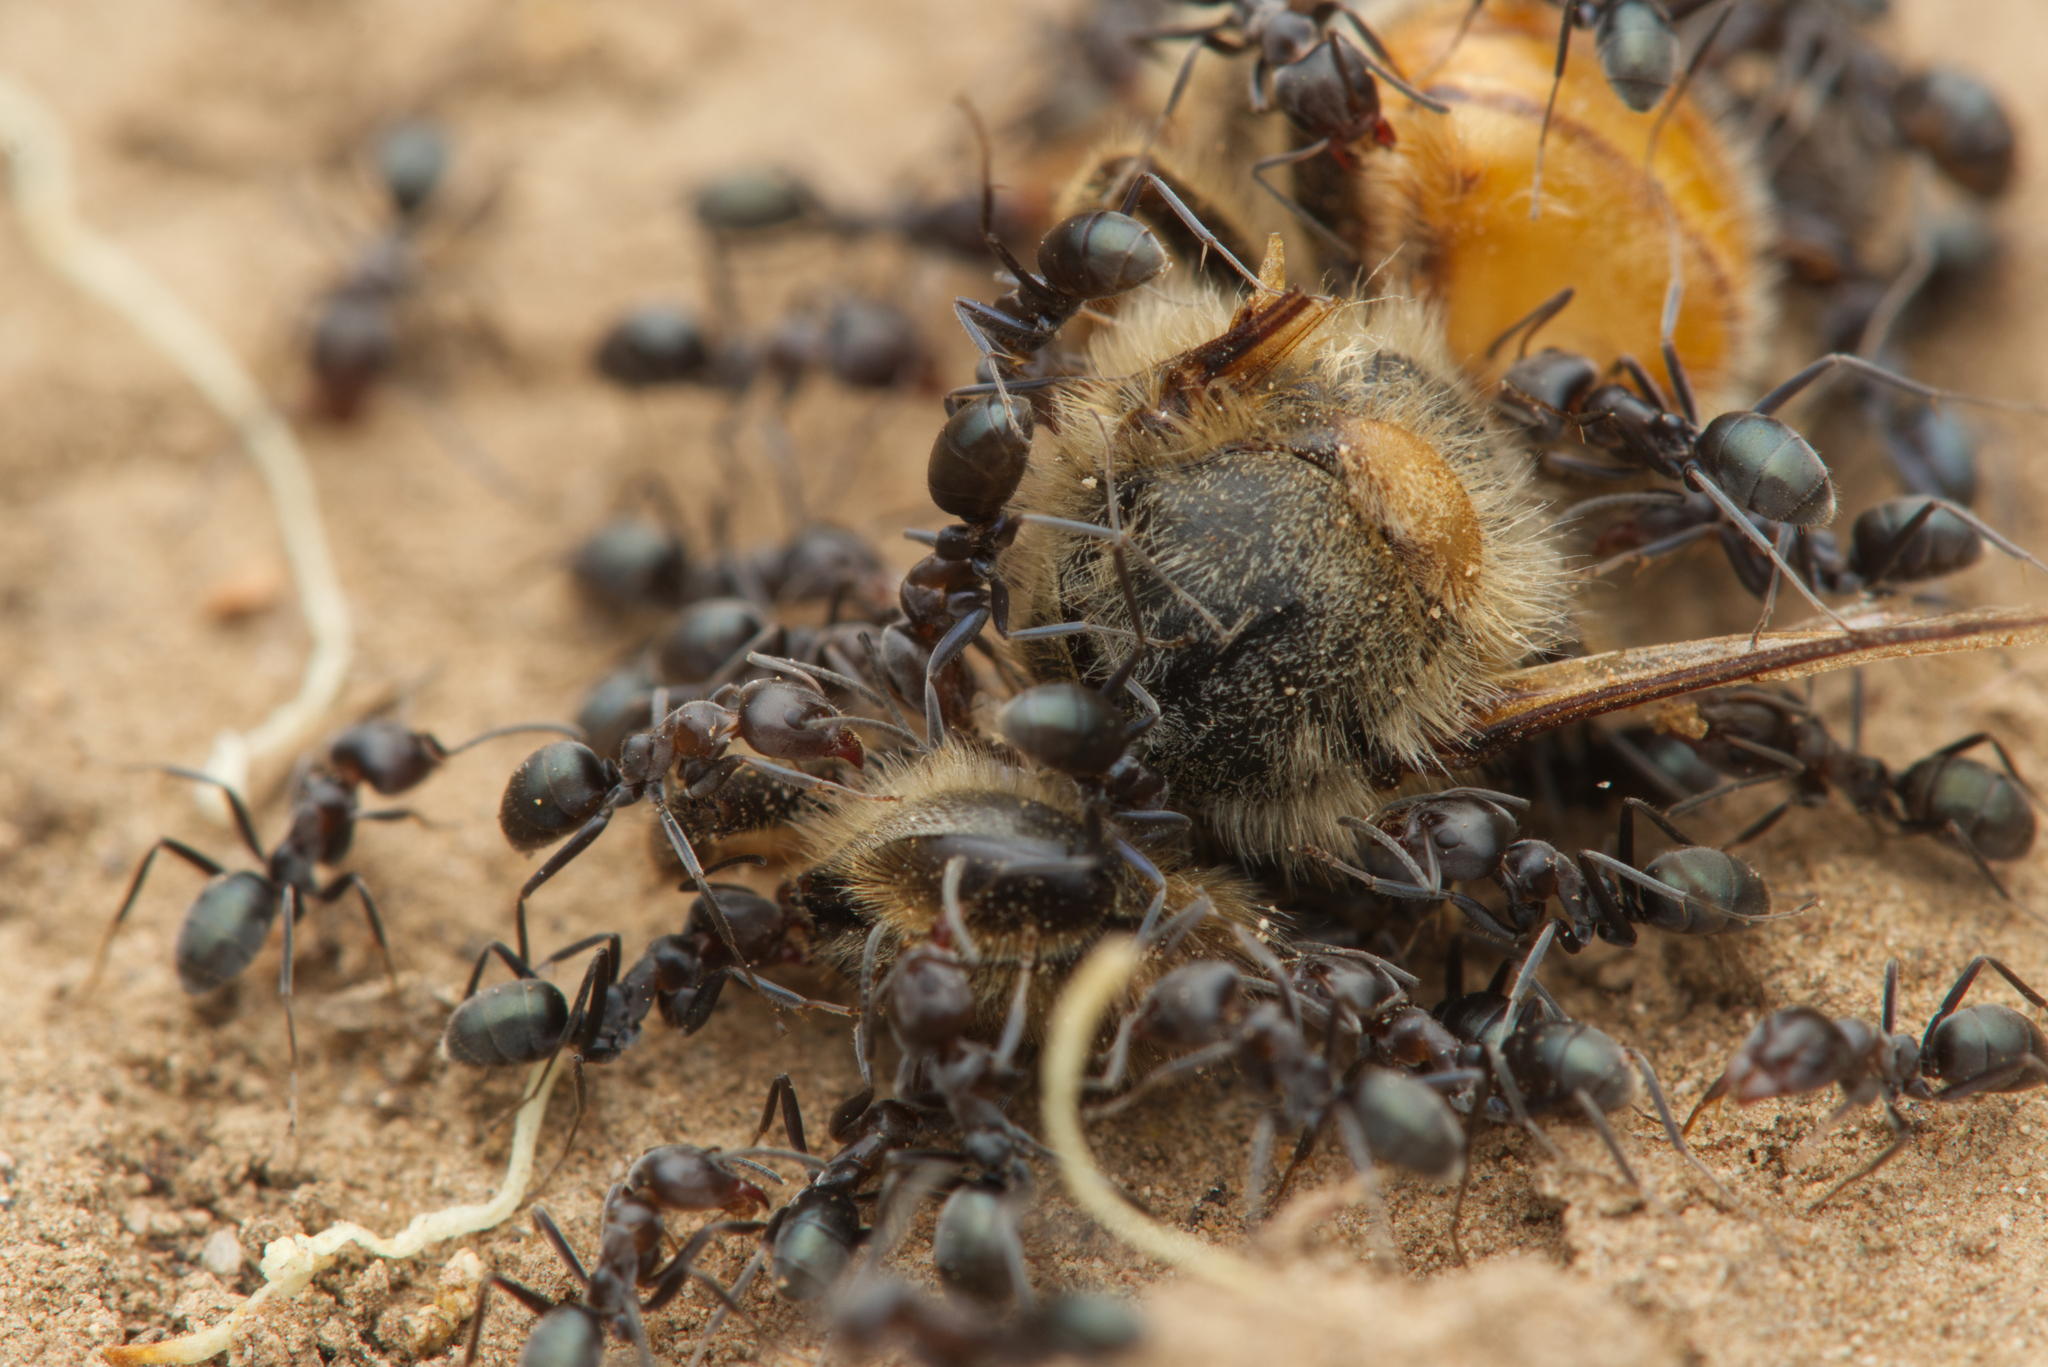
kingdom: Animalia
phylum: Arthropoda
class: Insecta
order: Hymenoptera
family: Formicidae
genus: Iridomyrmex
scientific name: Iridomyrmex rufoniger
